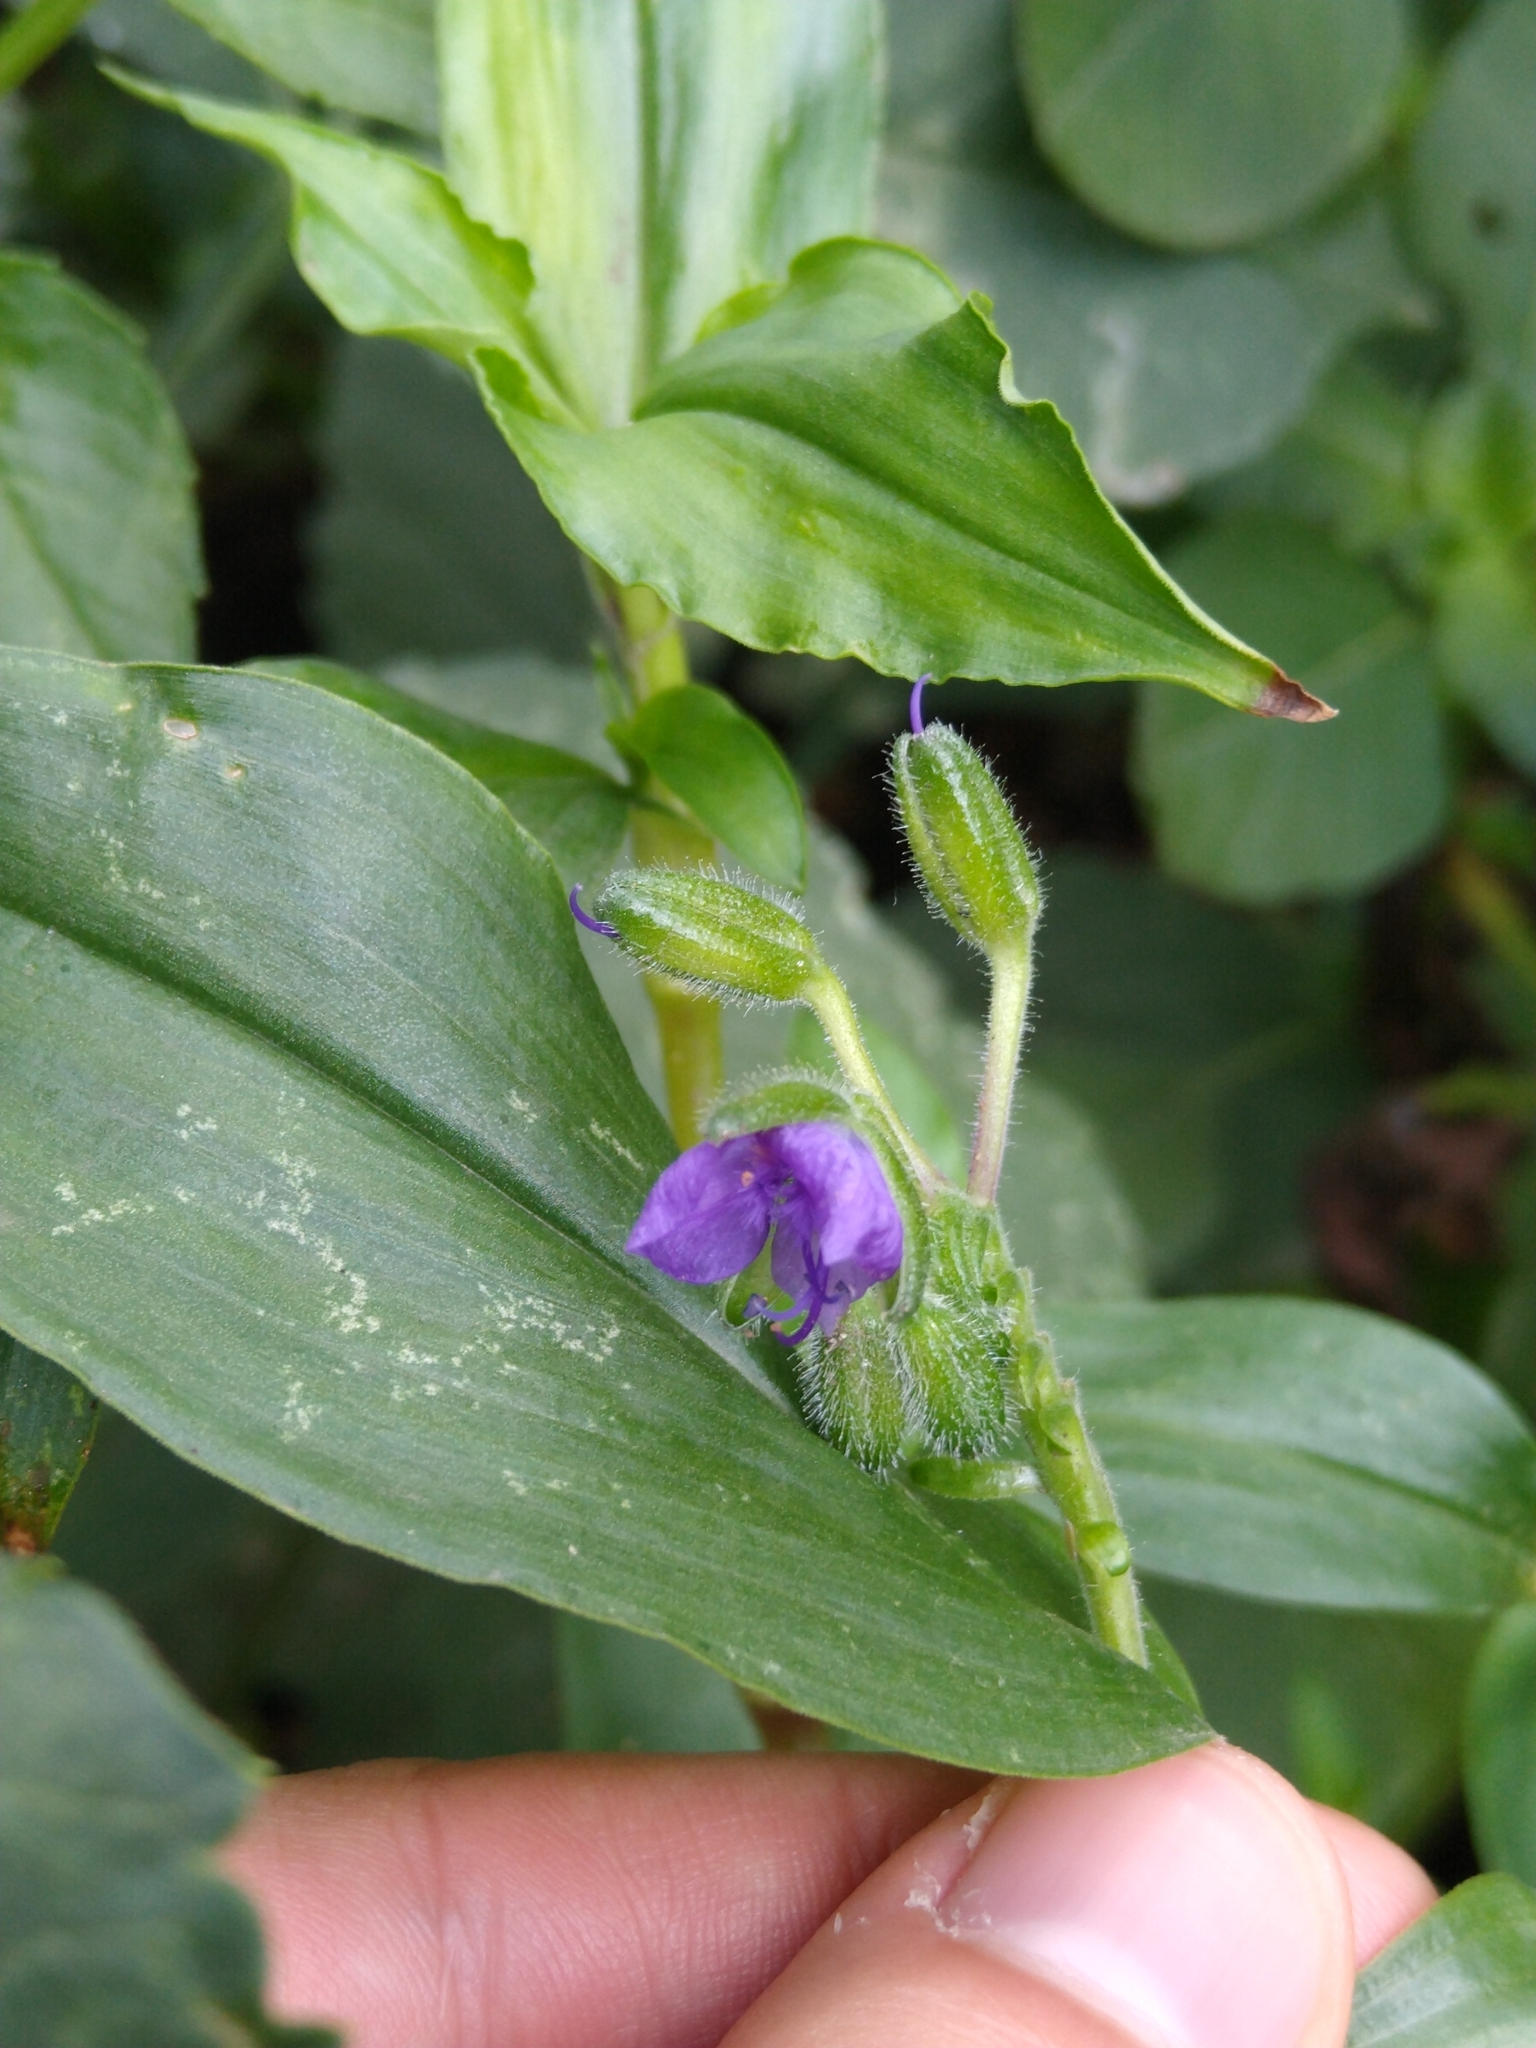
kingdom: Plantae
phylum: Tracheophyta
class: Liliopsida
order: Commelinales
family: Commelinaceae
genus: Tinantia
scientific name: Tinantia erecta
